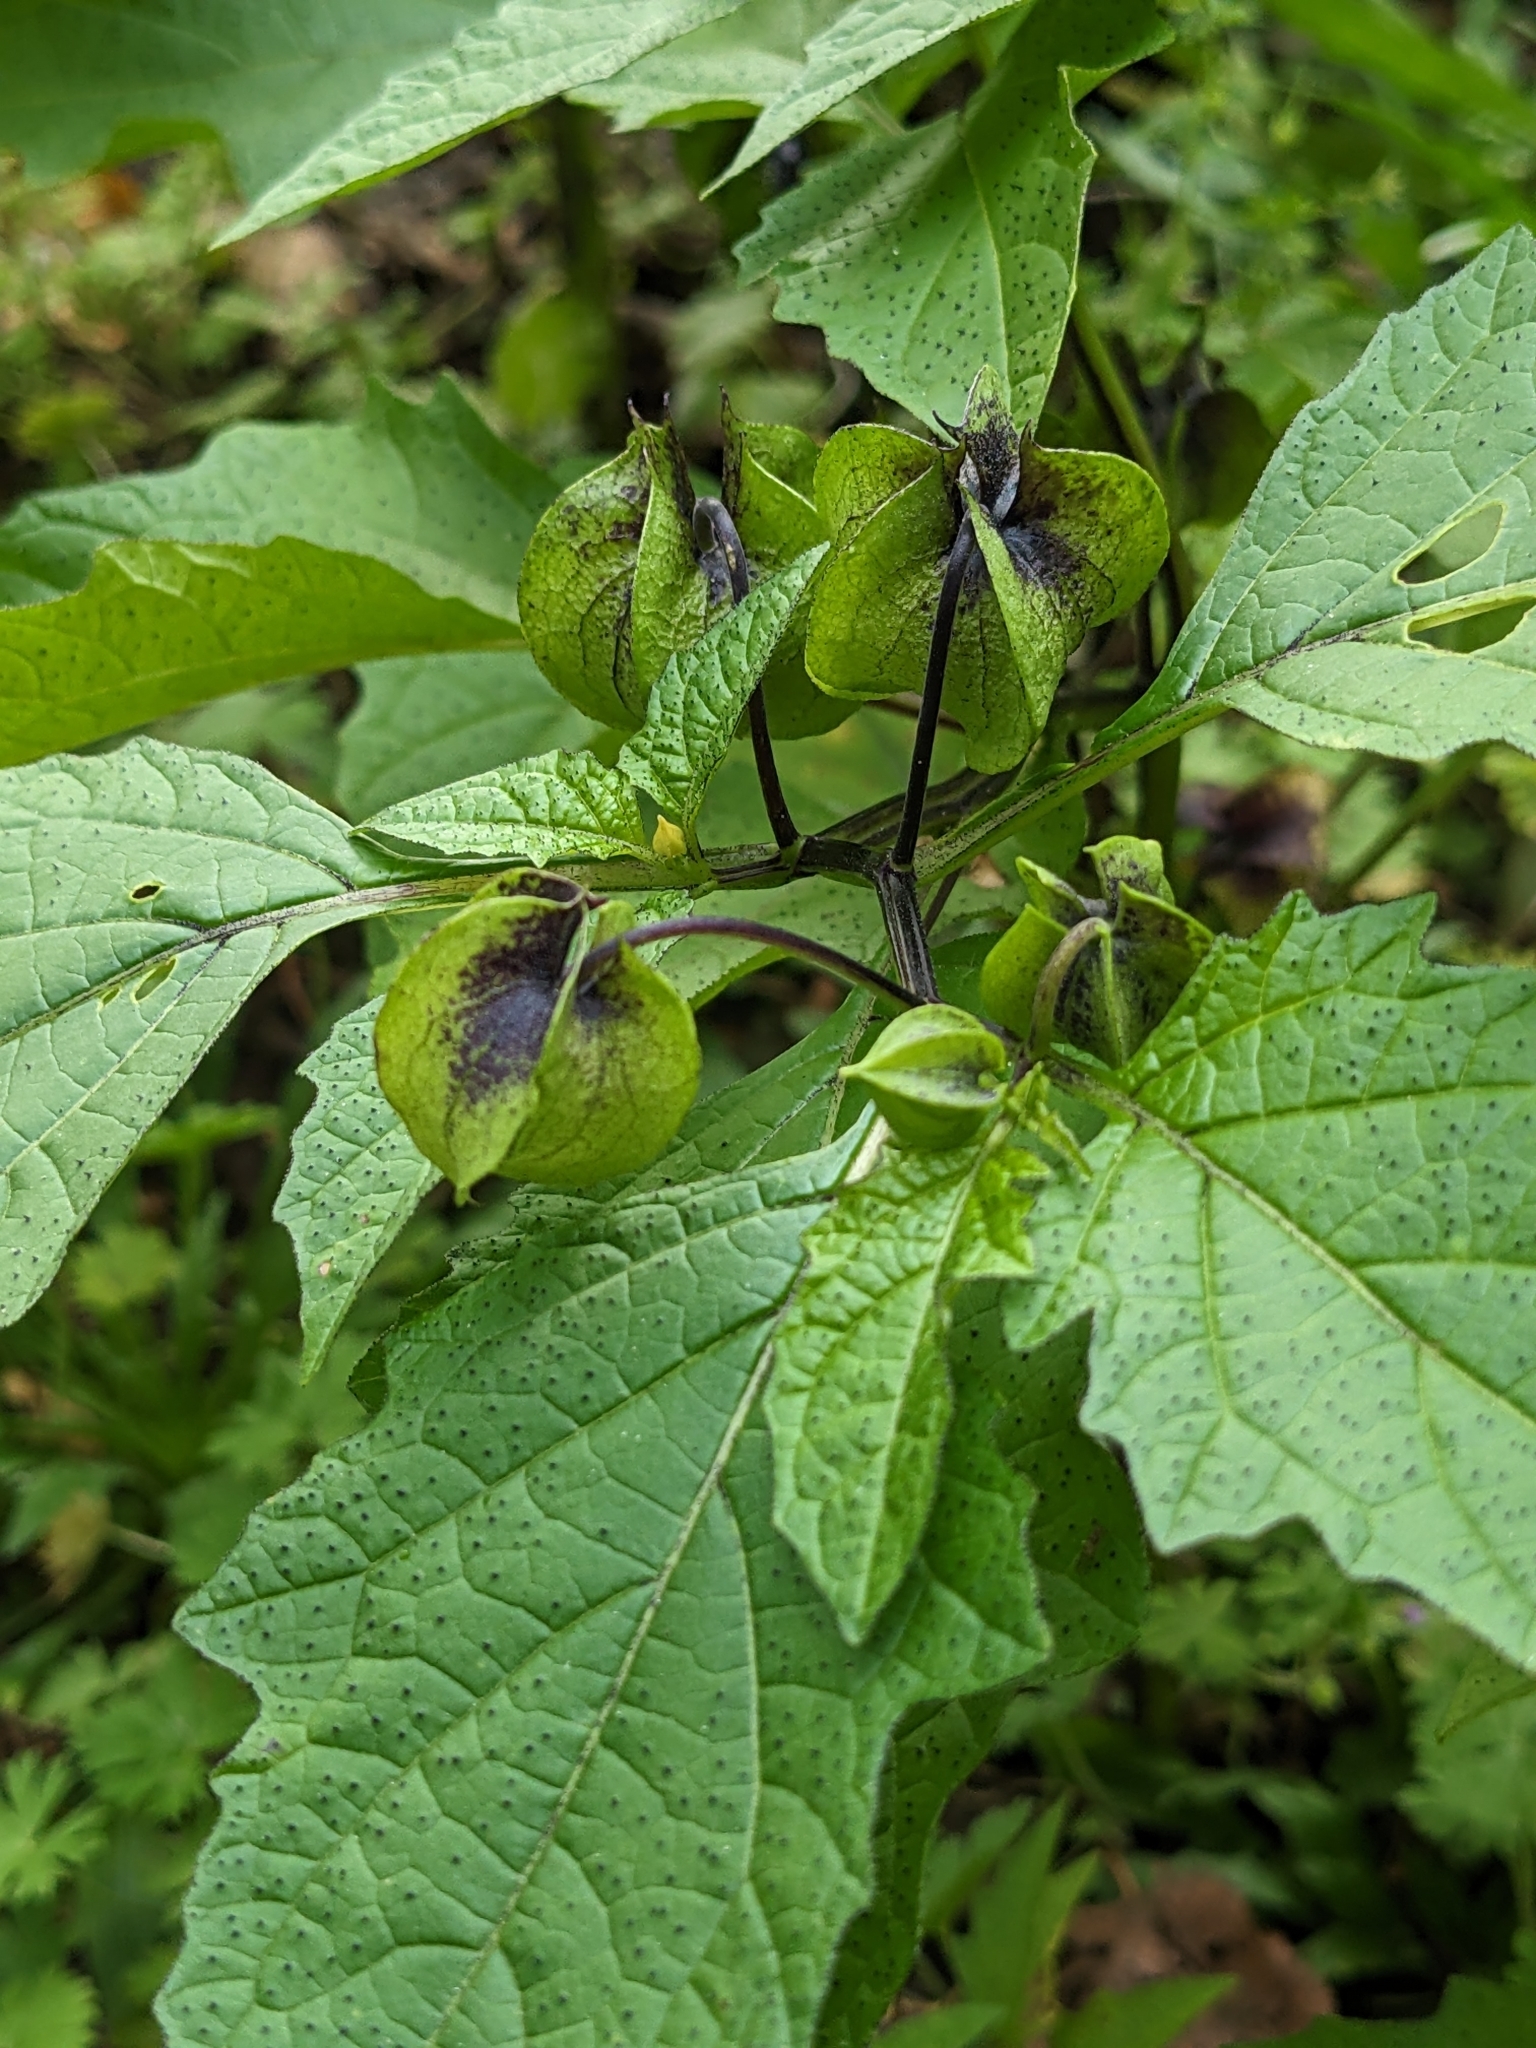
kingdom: Plantae
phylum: Tracheophyta
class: Magnoliopsida
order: Solanales
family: Solanaceae
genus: Nicandra
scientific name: Nicandra physalodes
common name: Apple-of-peru
